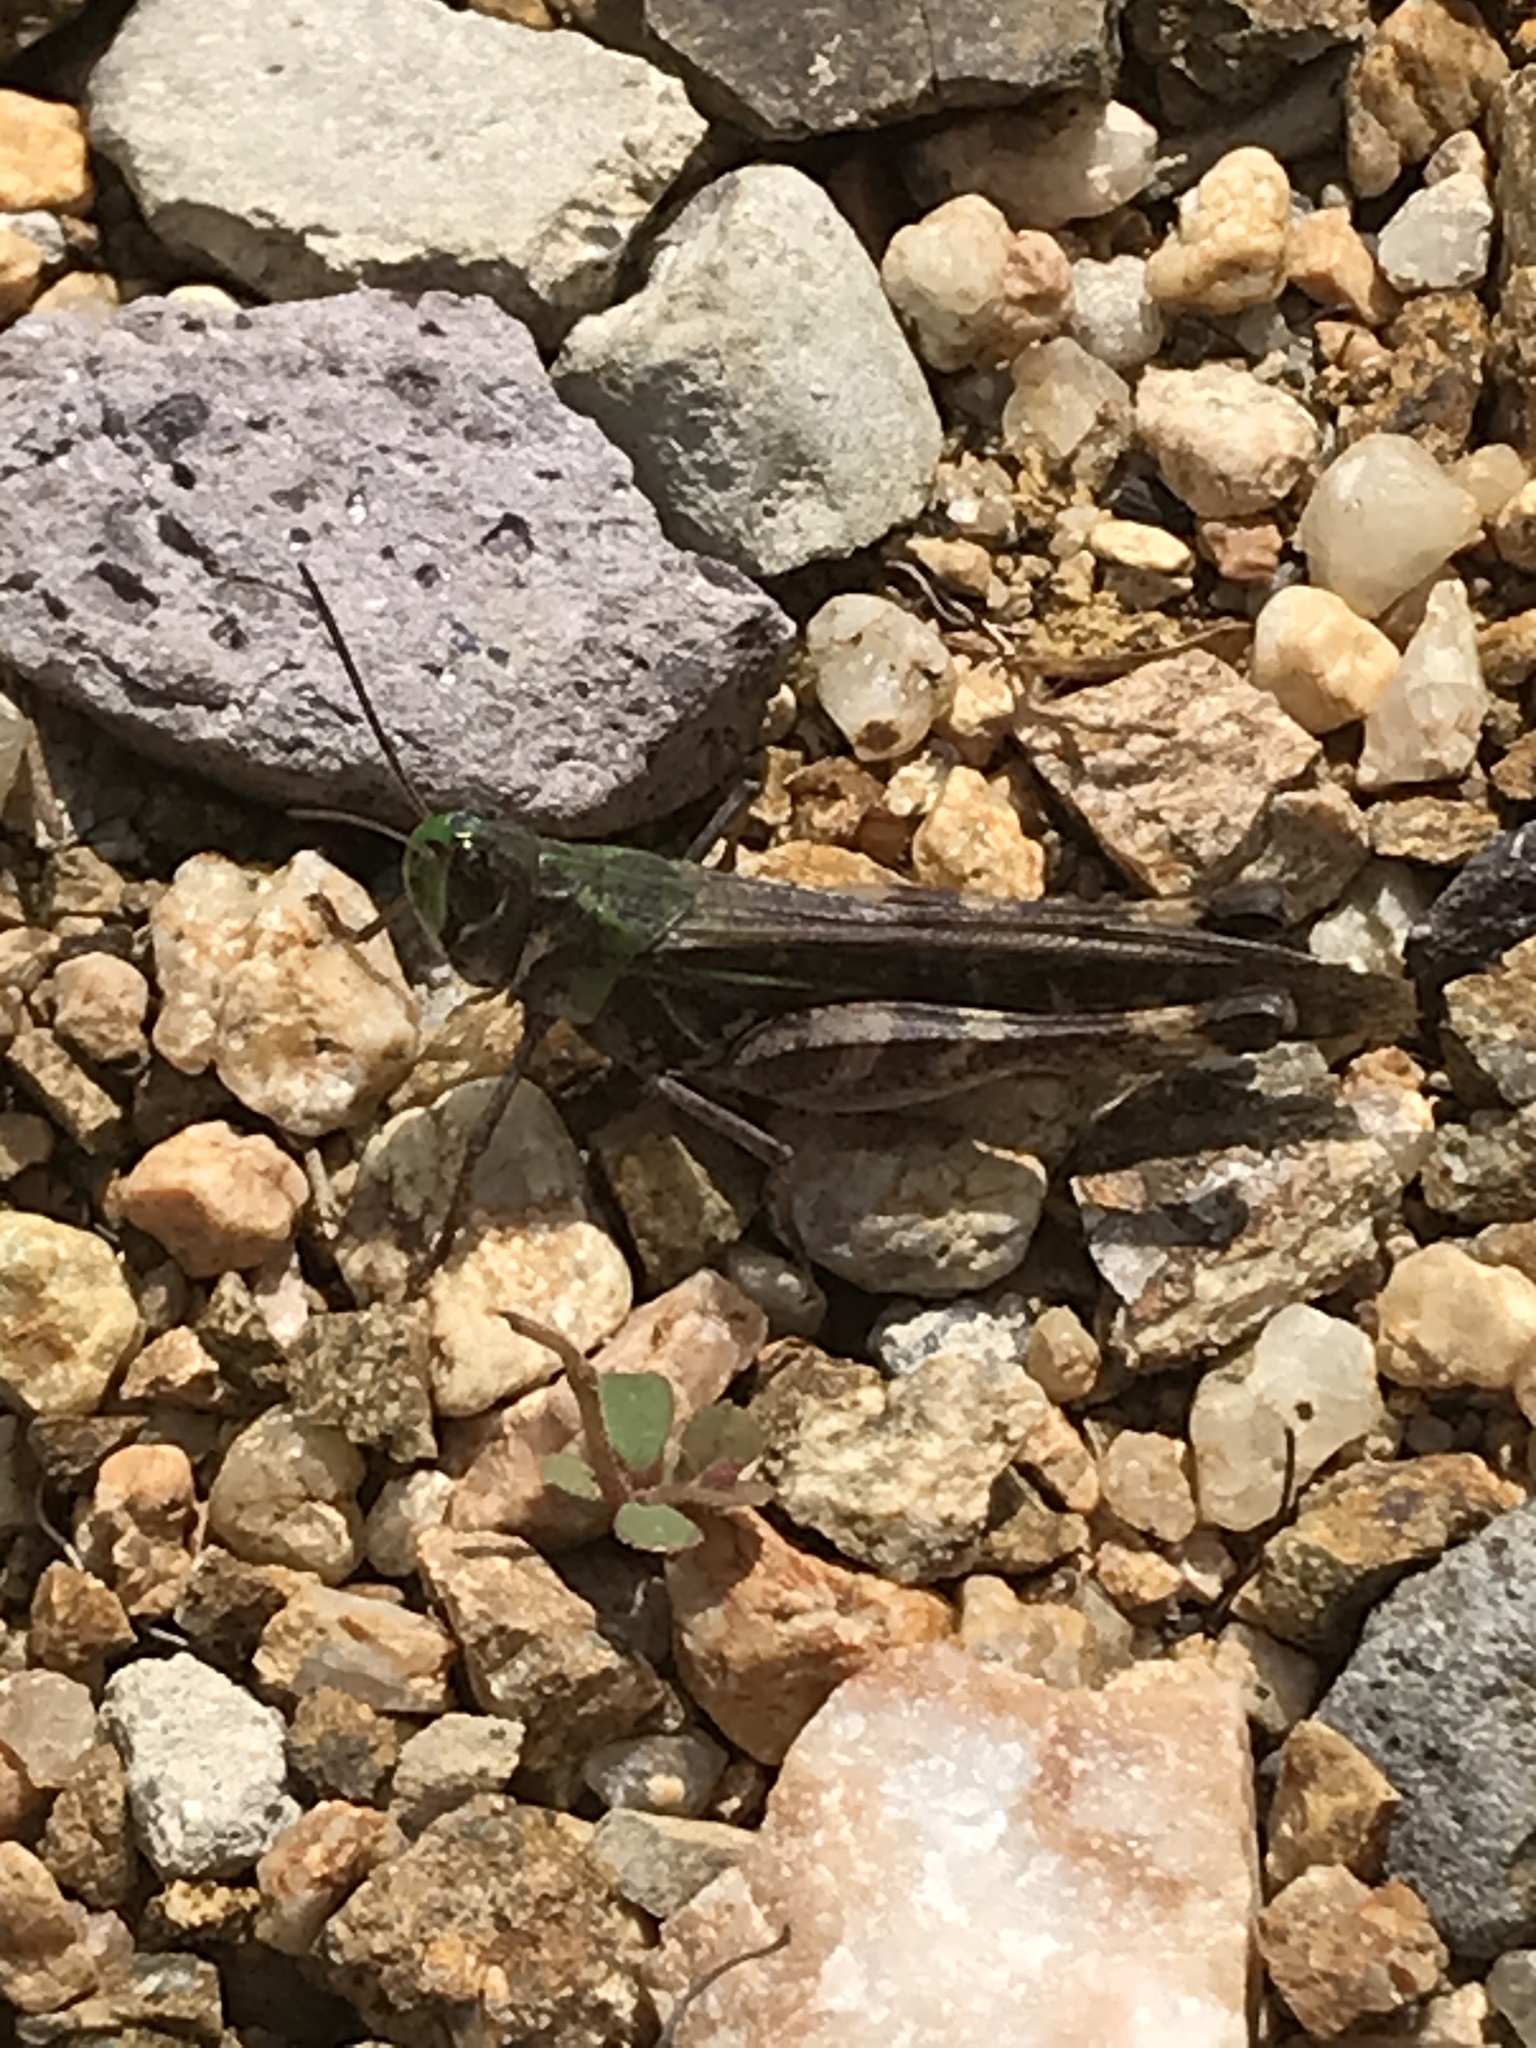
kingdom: Animalia
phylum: Arthropoda
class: Insecta
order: Orthoptera
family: Acrididae
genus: Rhammatocerus
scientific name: Rhammatocerus viatorius
